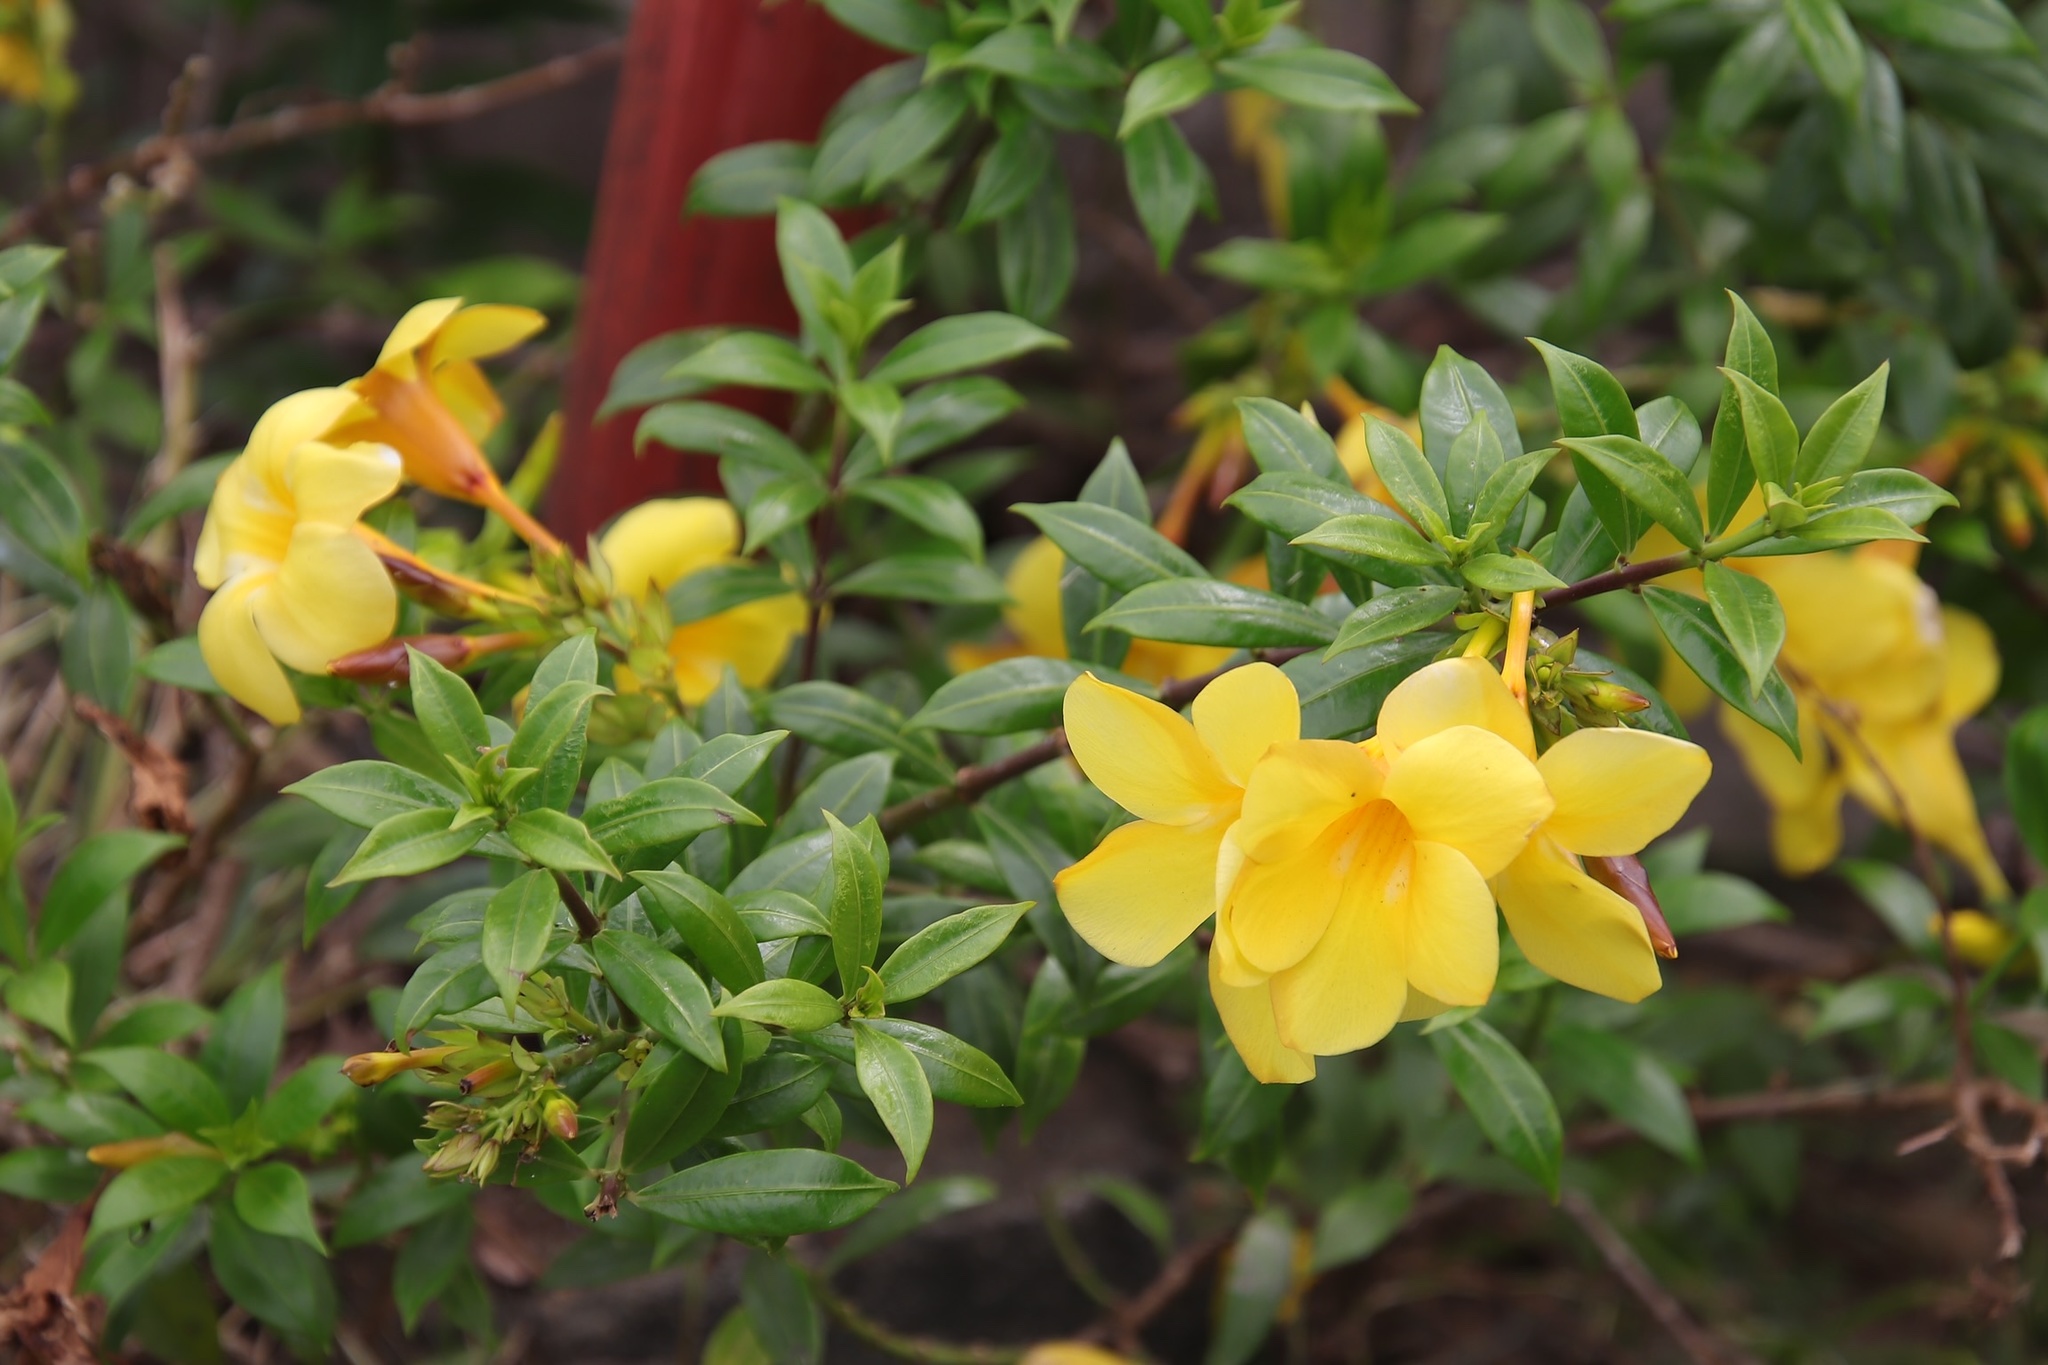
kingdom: Plantae
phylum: Tracheophyta
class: Magnoliopsida
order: Gentianales
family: Apocynaceae
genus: Allamanda
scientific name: Allamanda cathartica
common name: Golden trumpet
